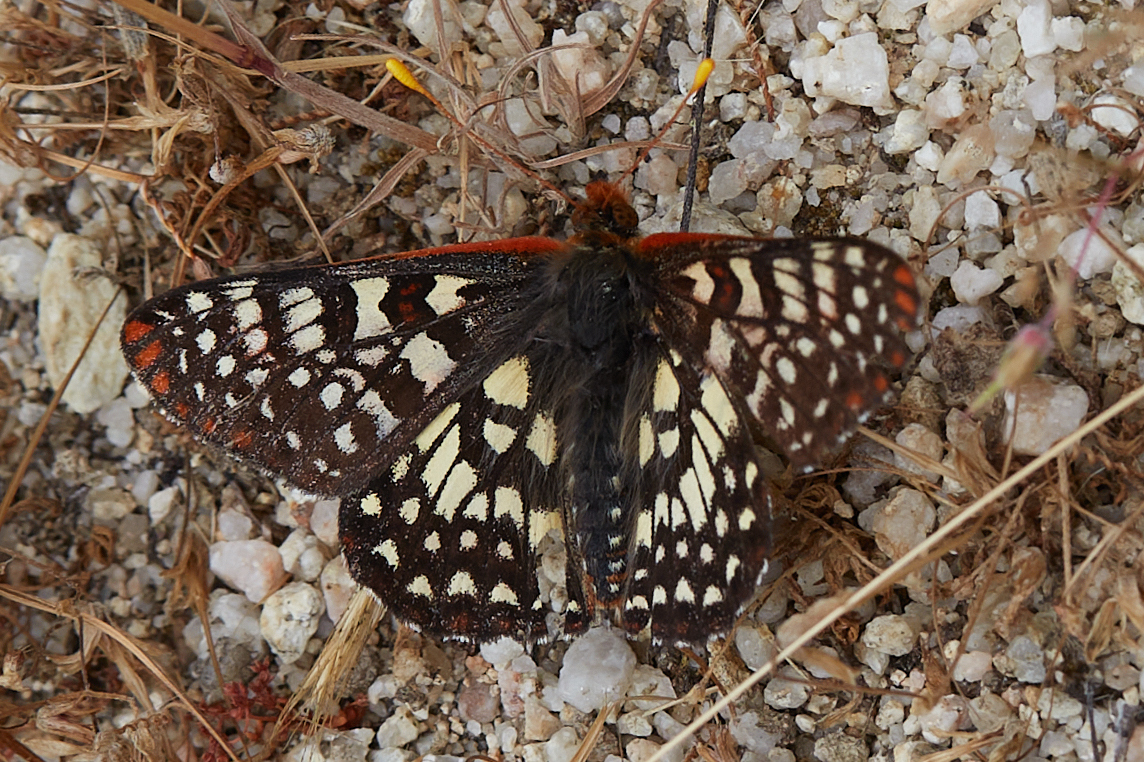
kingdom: Animalia
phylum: Arthropoda
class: Insecta
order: Lepidoptera
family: Nymphalidae
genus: Occidryas
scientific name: Occidryas chalcedona
